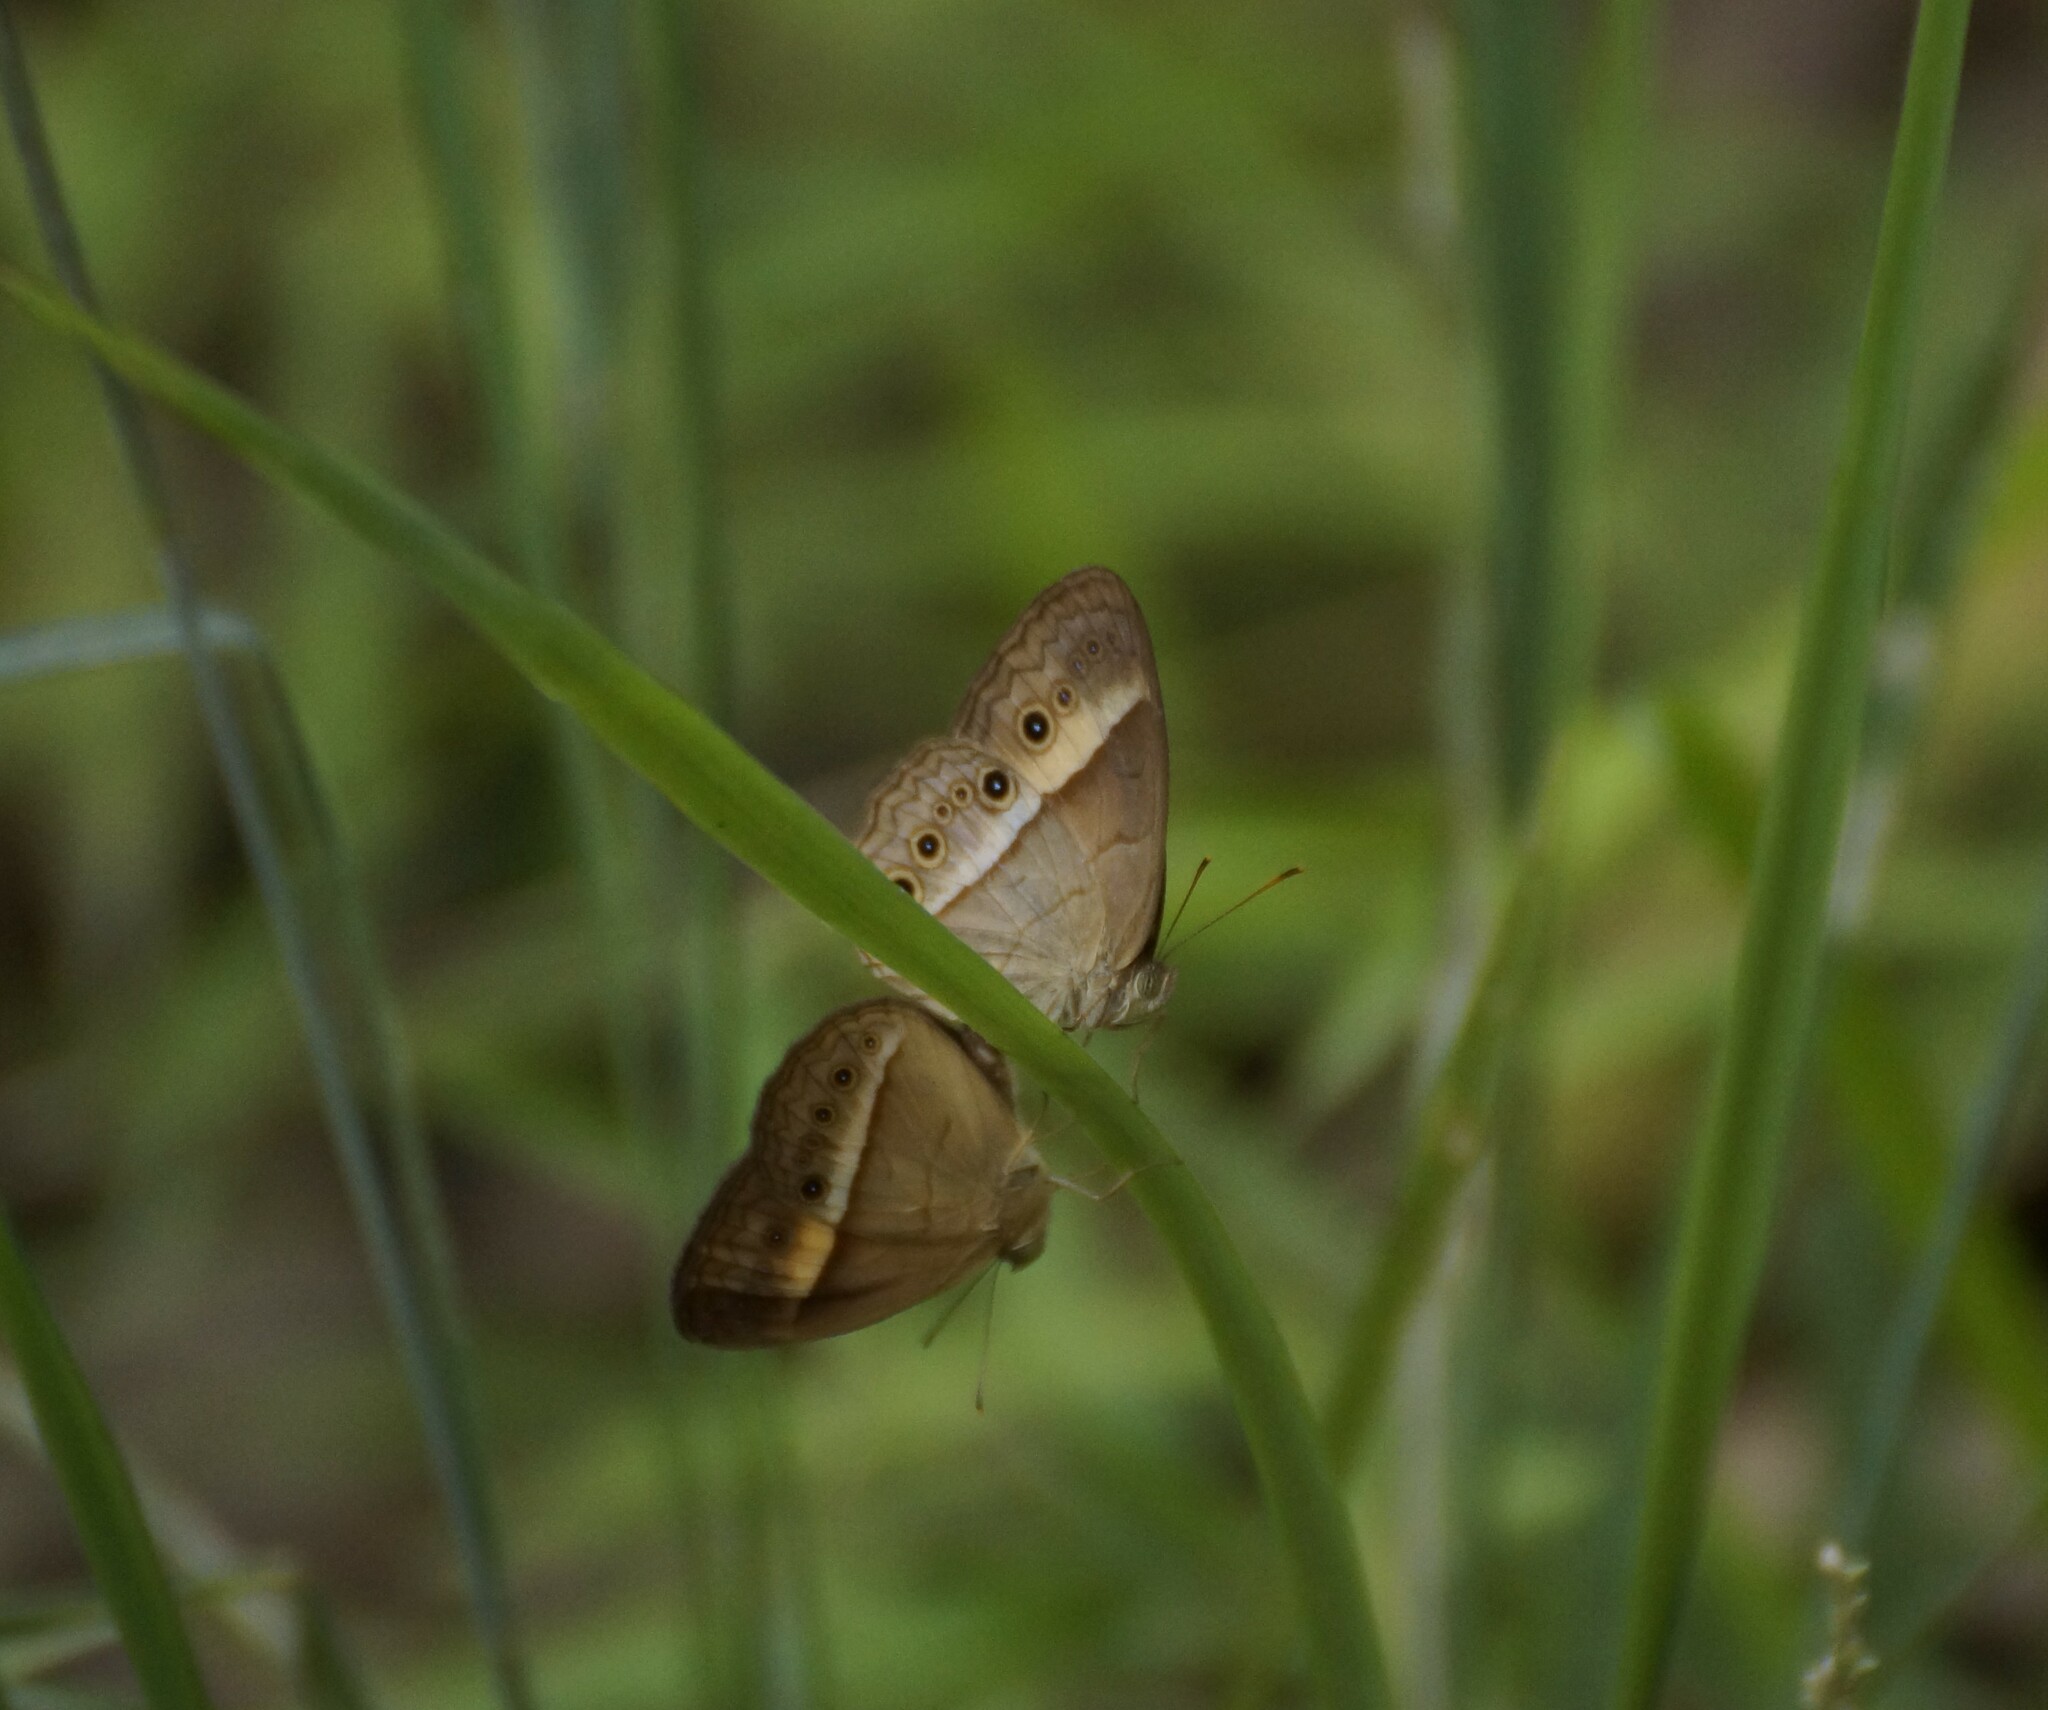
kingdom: Animalia
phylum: Arthropoda
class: Insecta
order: Lepidoptera
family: Nymphalidae
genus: Mycalesis
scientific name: Mycalesis terminus
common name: Orange bushbrown
